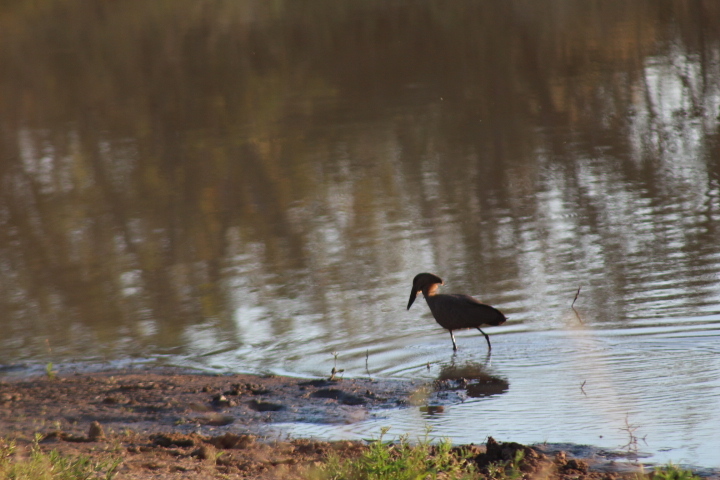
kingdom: Animalia
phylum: Chordata
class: Aves
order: Pelecaniformes
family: Scopidae
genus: Scopus
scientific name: Scopus umbretta
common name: Hamerkop
